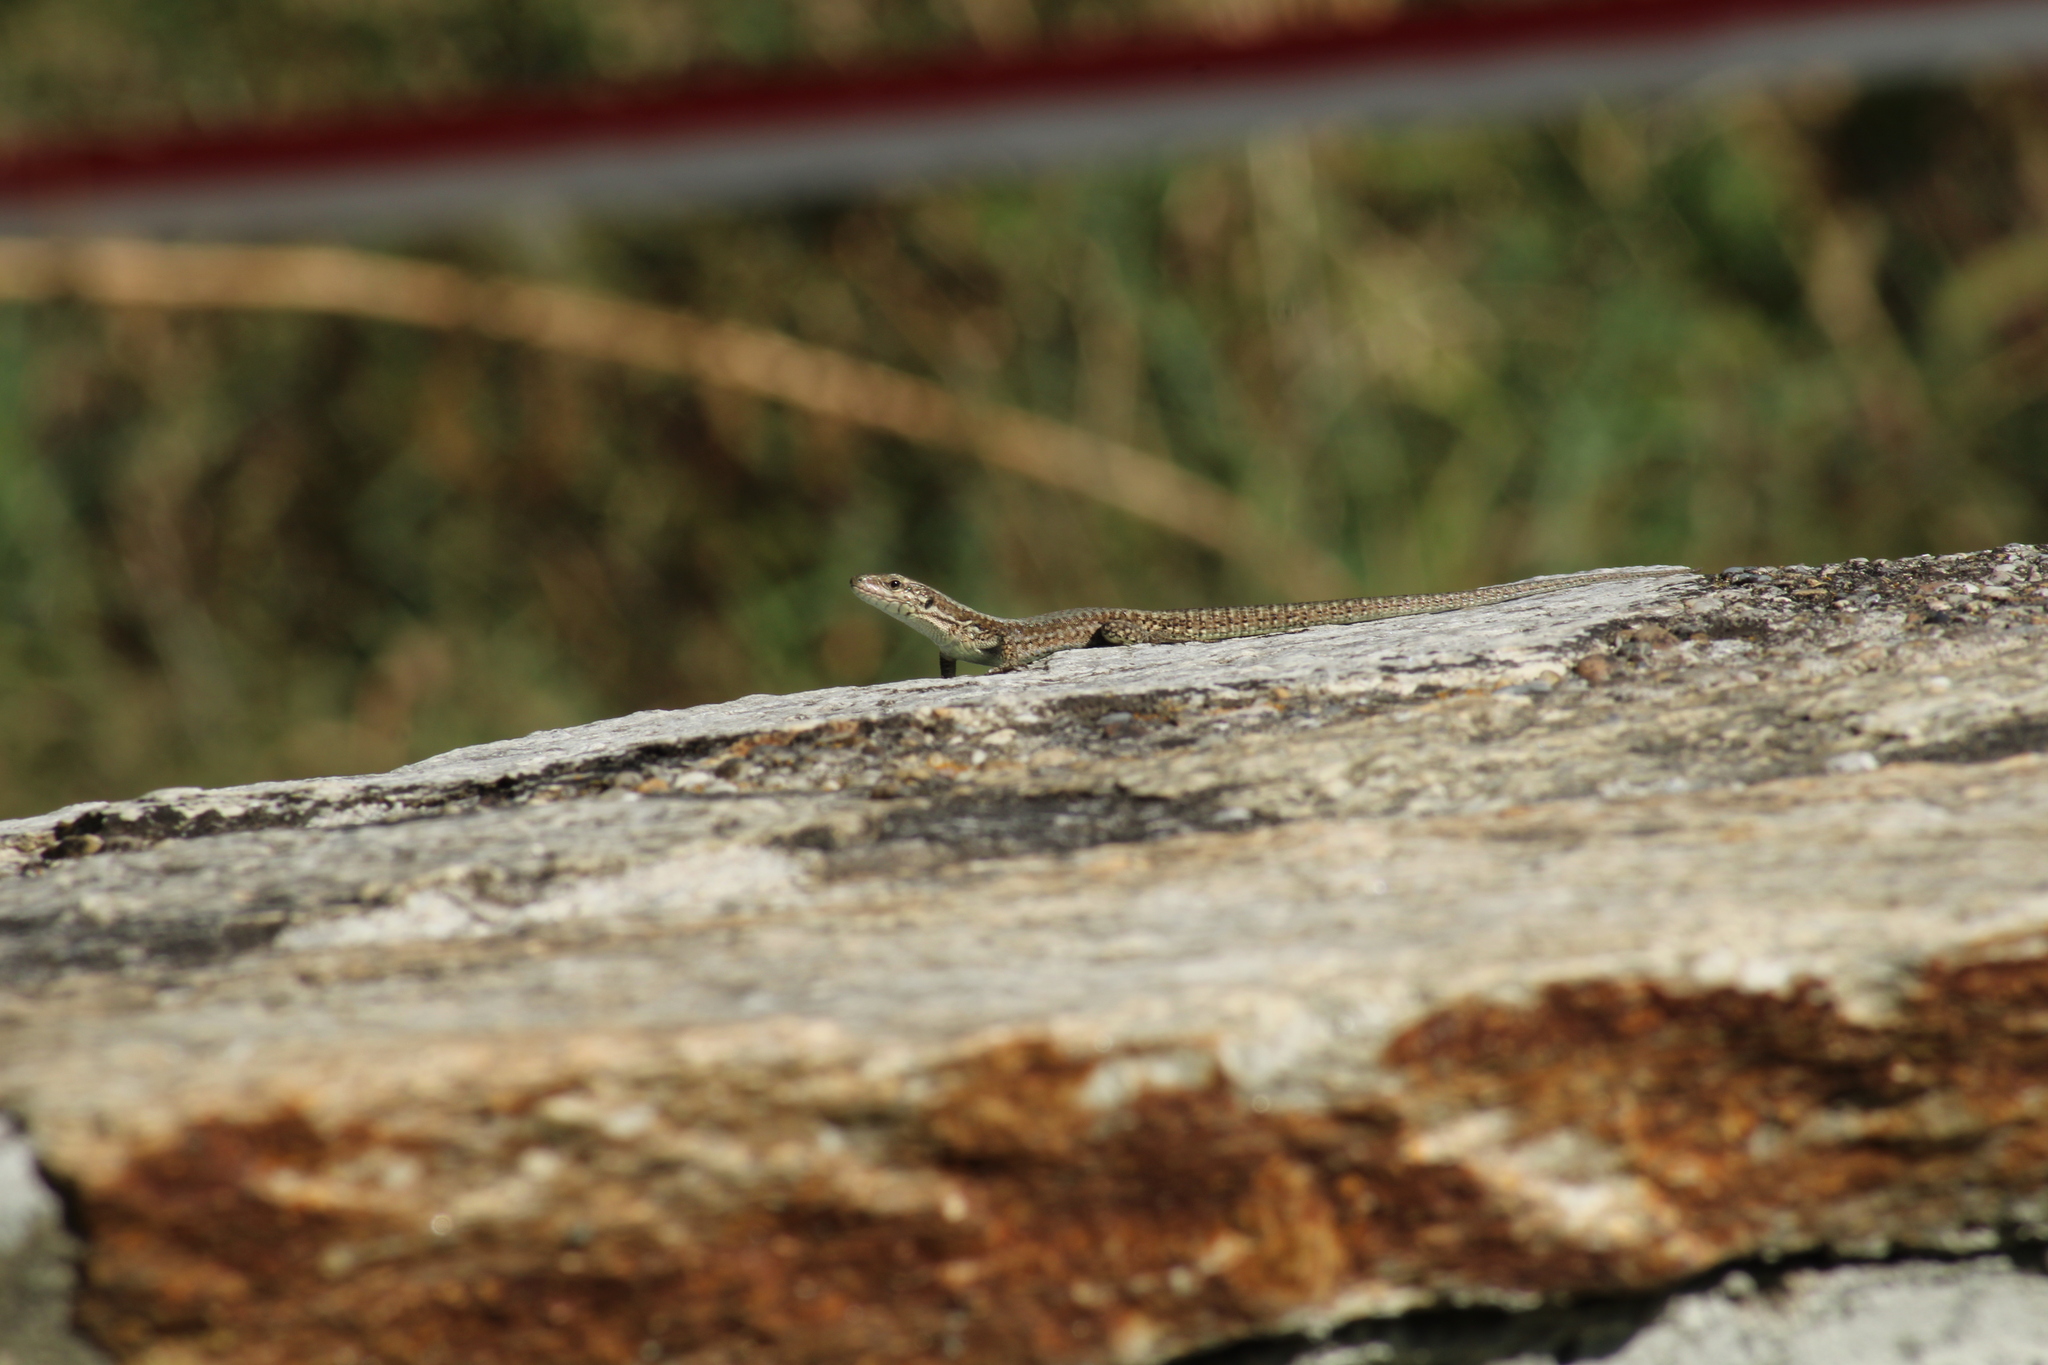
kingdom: Animalia
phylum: Chordata
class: Squamata
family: Lacertidae
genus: Podarcis
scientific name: Podarcis muralis
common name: Common wall lizard
